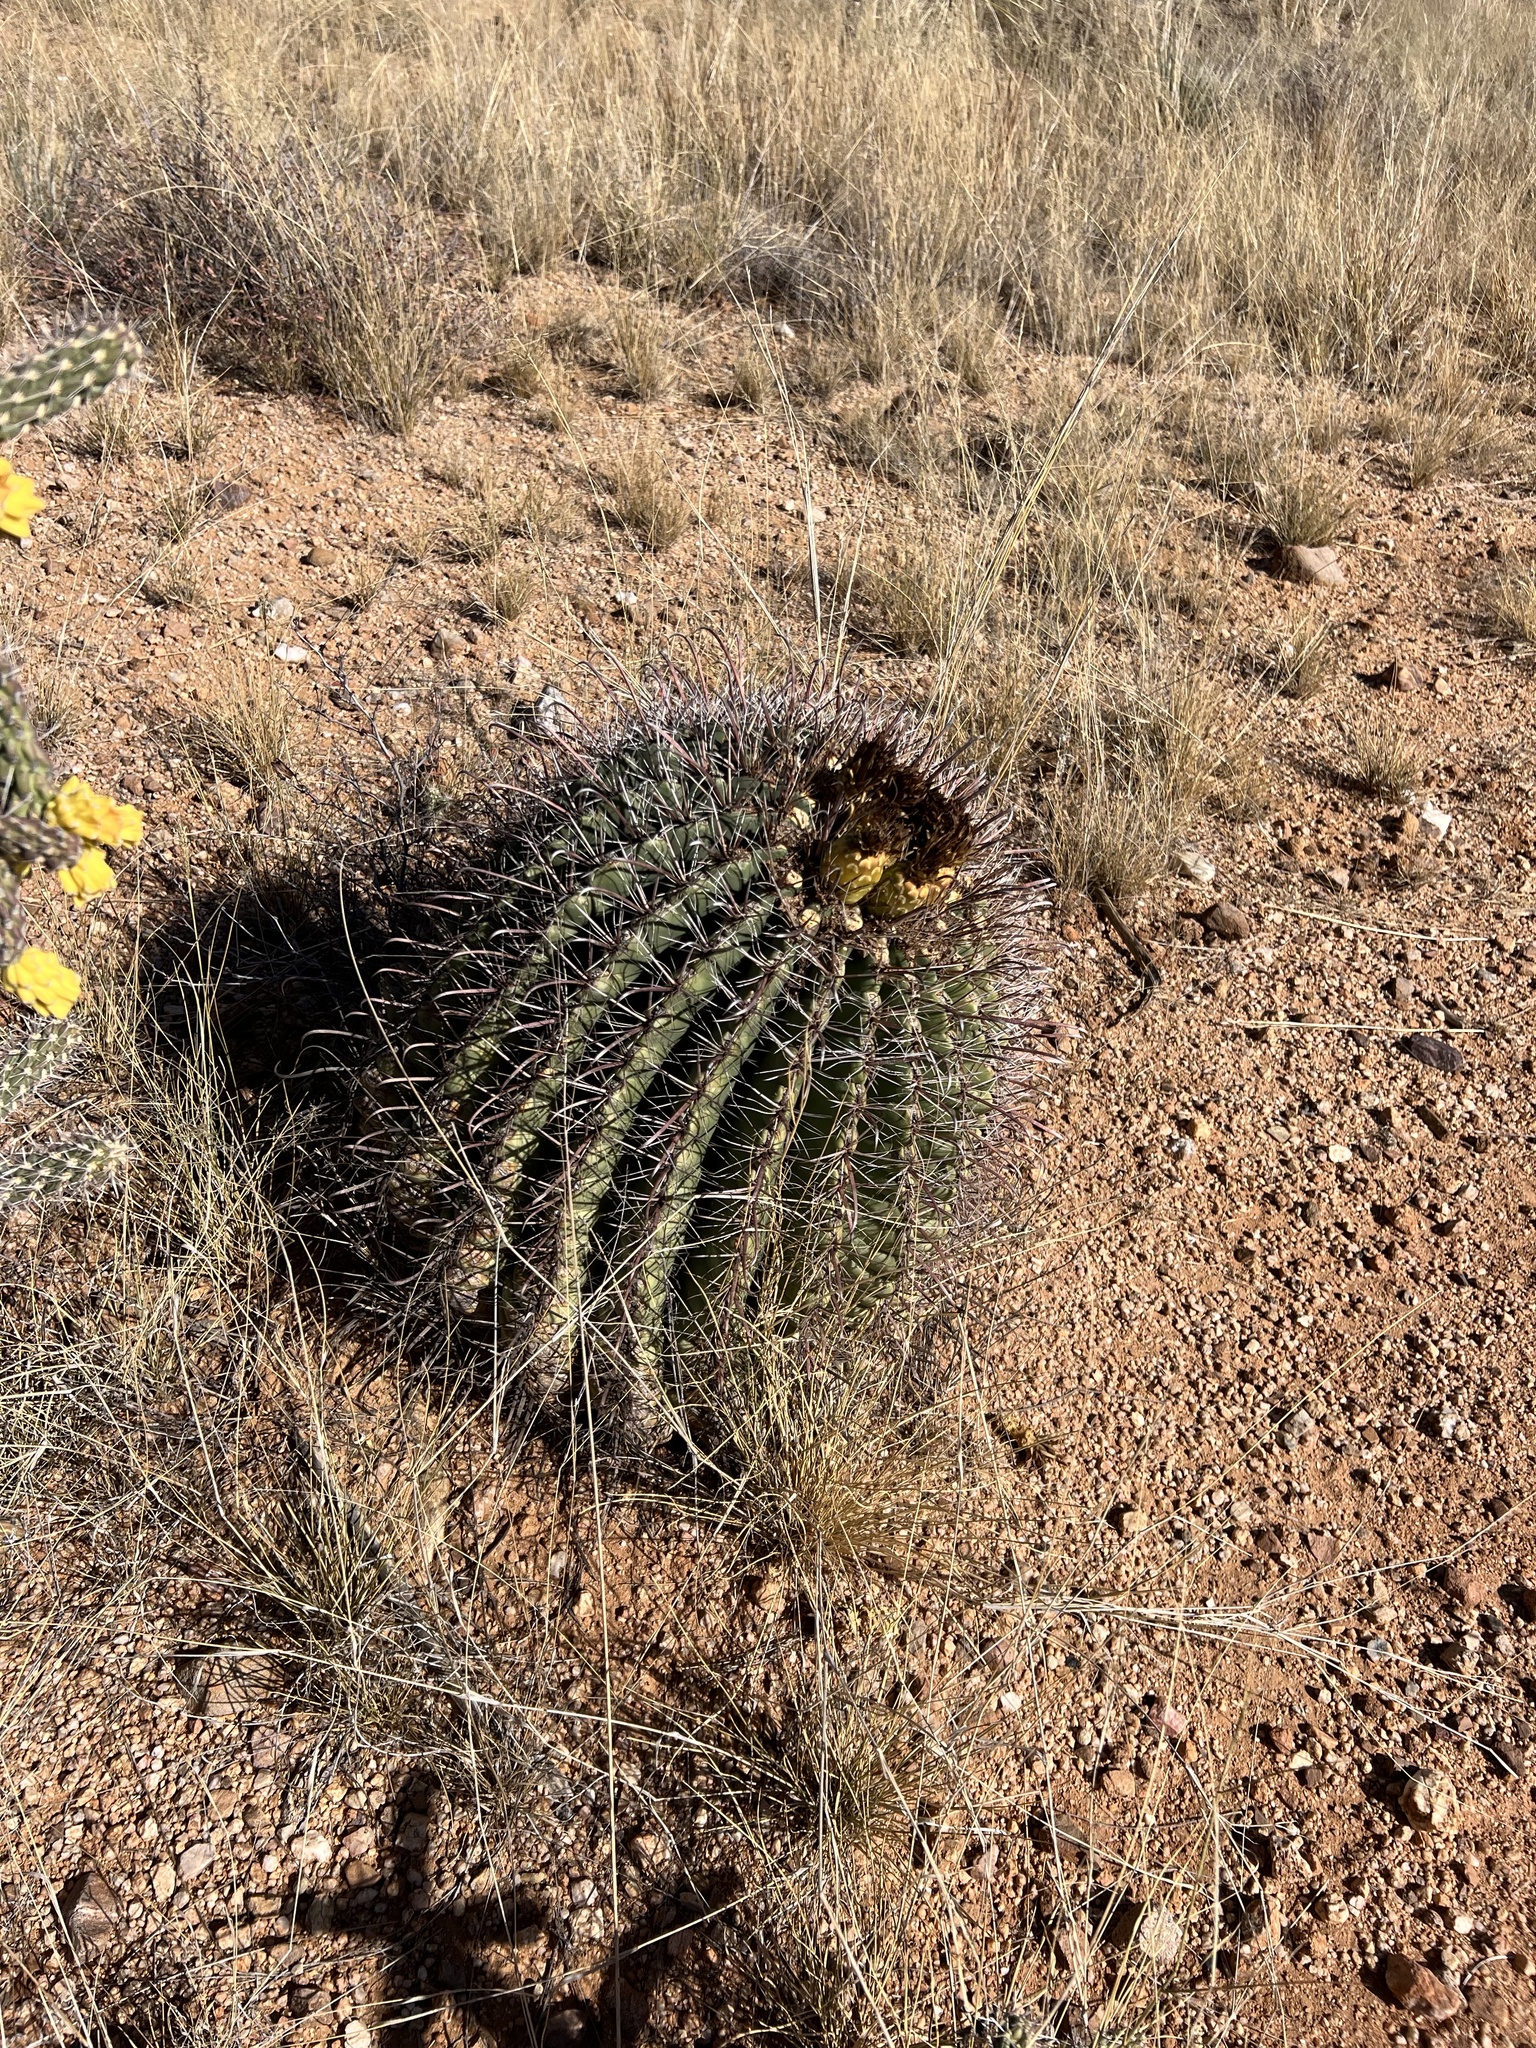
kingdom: Plantae
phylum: Tracheophyta
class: Magnoliopsida
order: Caryophyllales
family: Cactaceae
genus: Ferocactus
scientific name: Ferocactus wislizeni
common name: Candy barrel cactus
